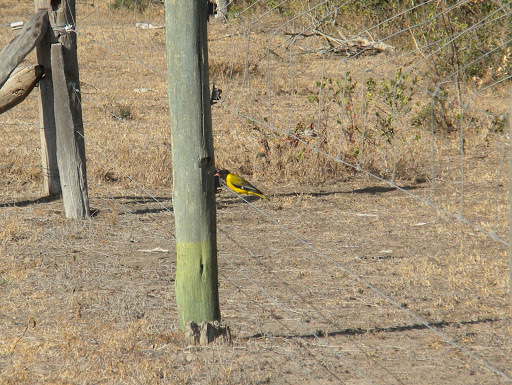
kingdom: Animalia
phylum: Chordata
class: Aves
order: Passeriformes
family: Oriolidae
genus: Oriolus
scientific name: Oriolus larvatus
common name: Black-headed oriole
